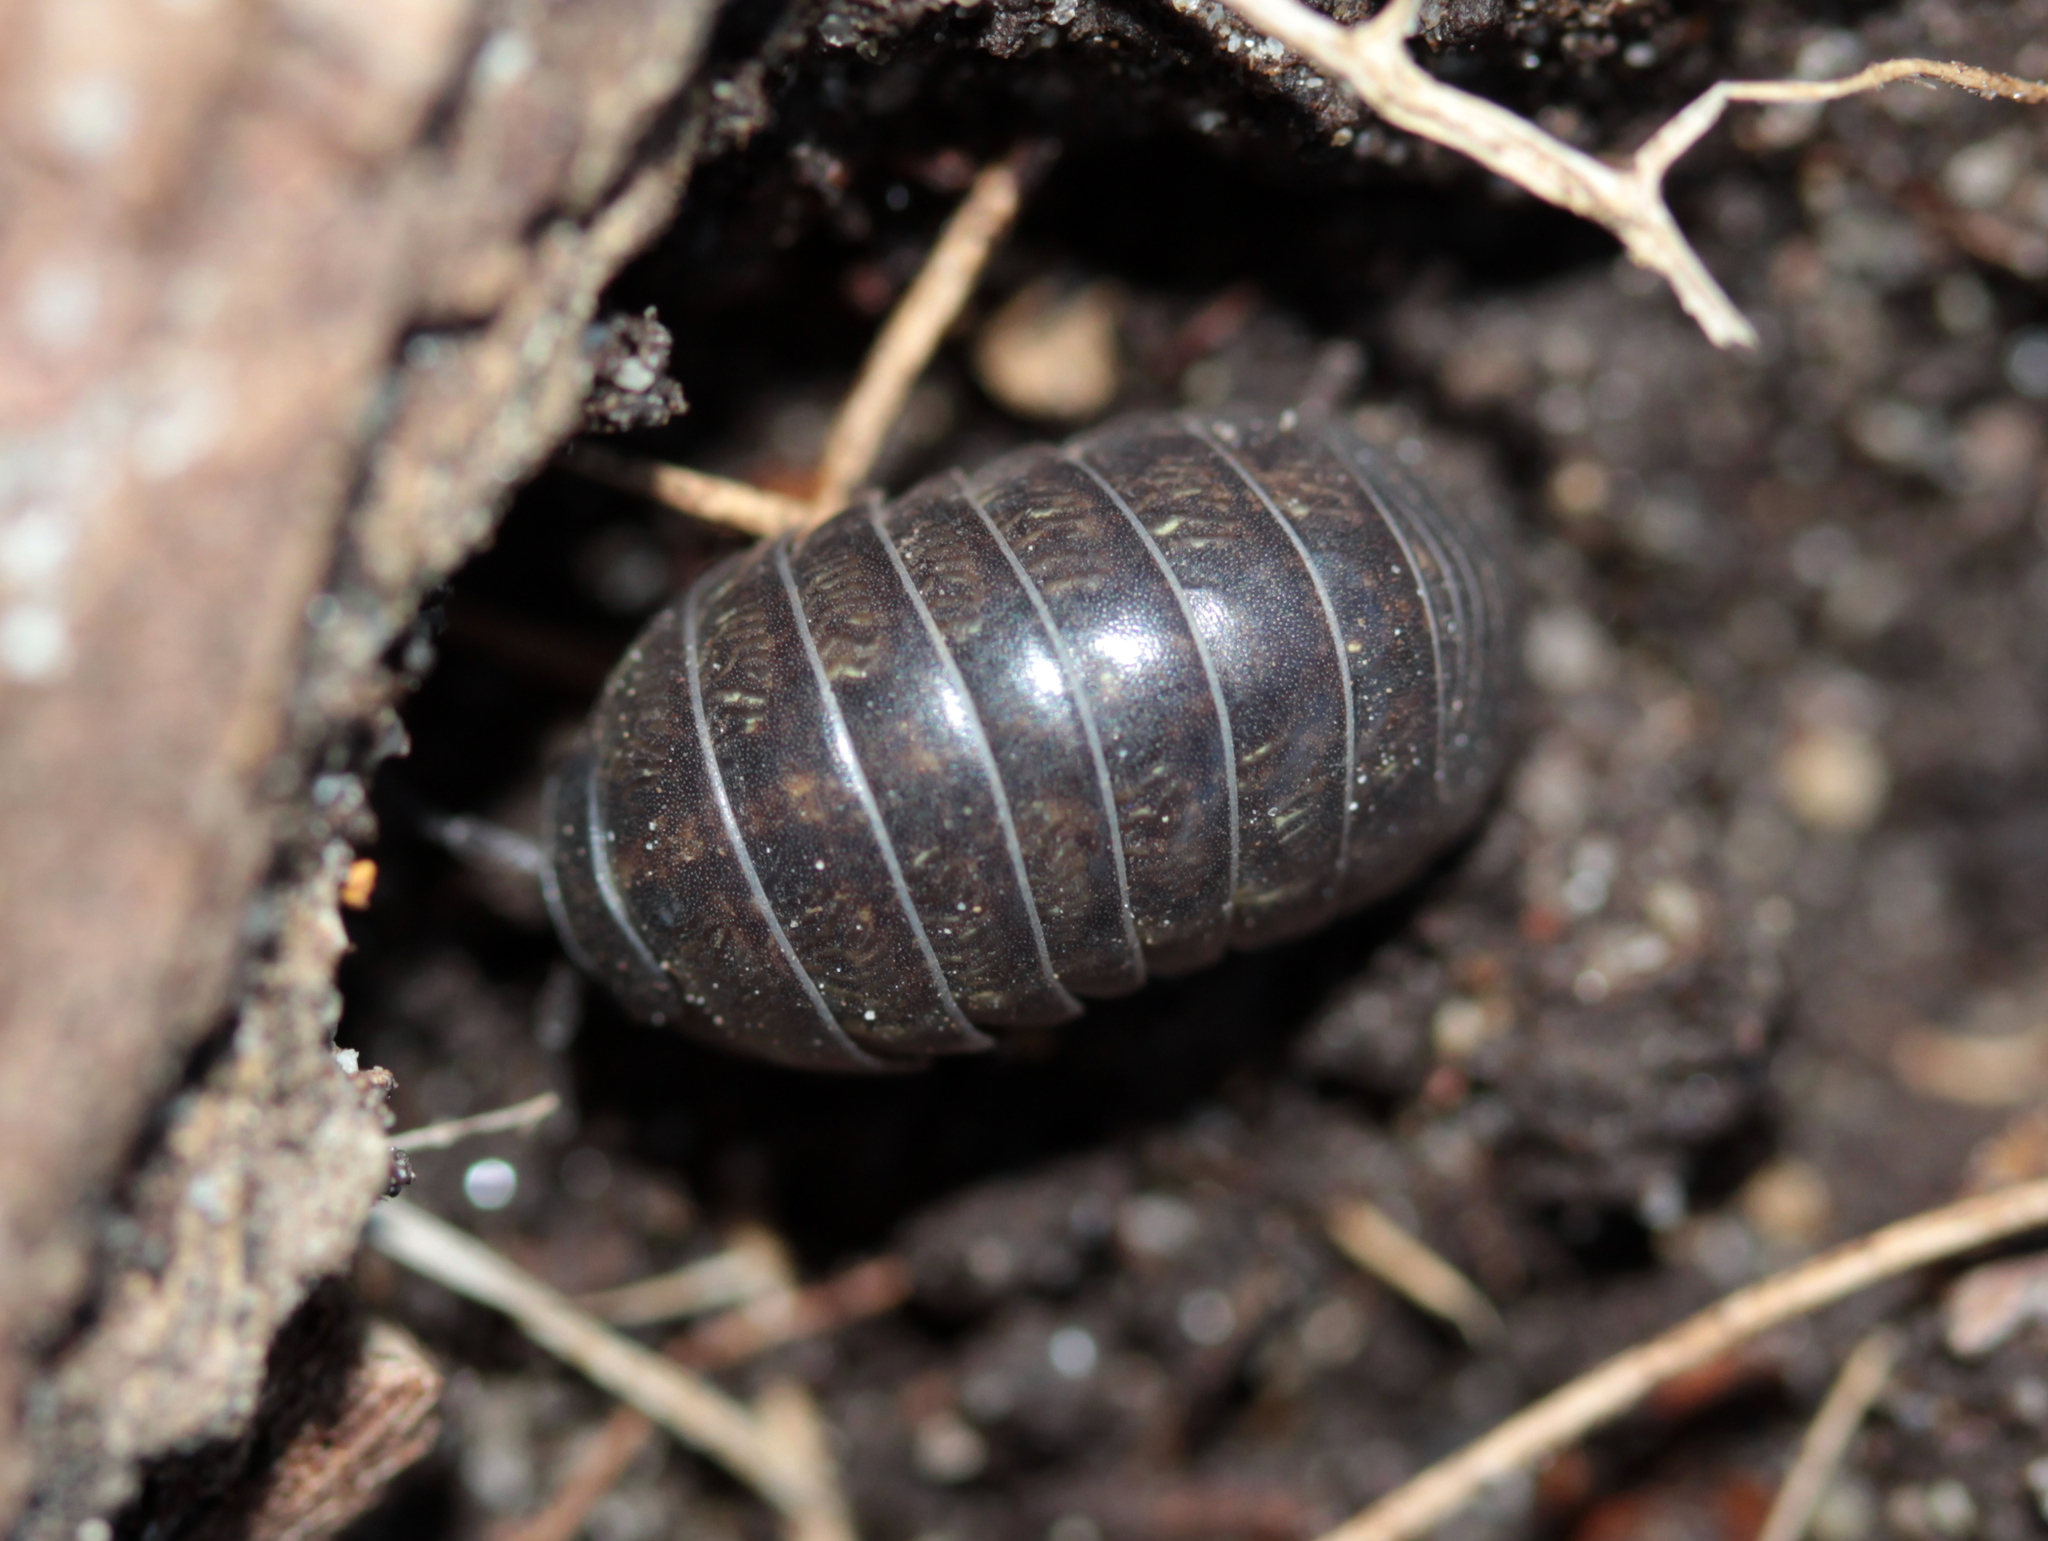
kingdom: Animalia
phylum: Arthropoda
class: Malacostraca
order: Isopoda
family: Armadillidiidae
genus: Armadillidium
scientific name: Armadillidium vulgare
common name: Common pill woodlouse
